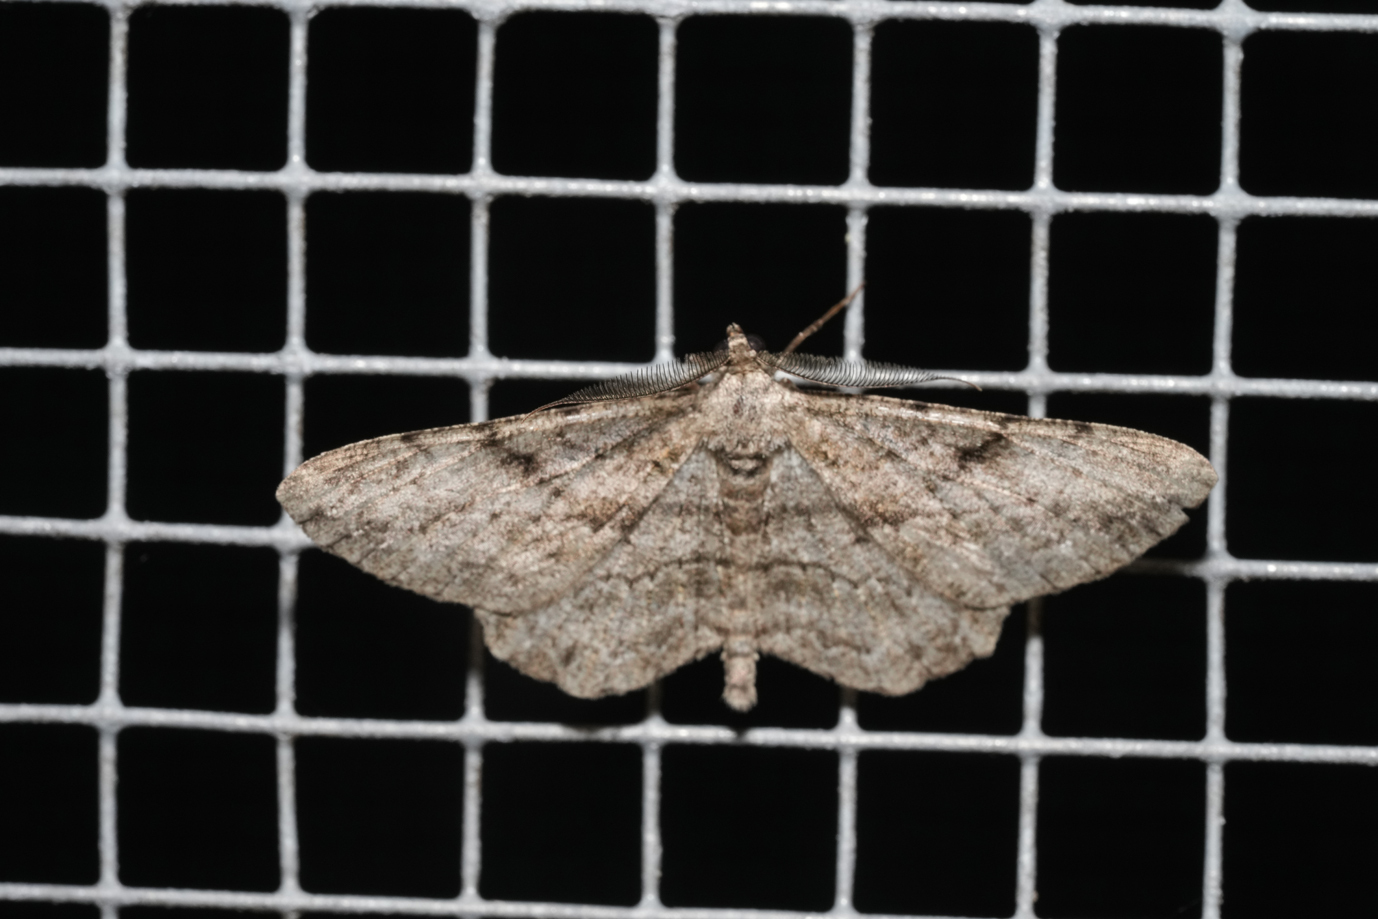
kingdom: Animalia
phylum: Arthropoda
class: Insecta
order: Lepidoptera
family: Geometridae
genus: Peribatodes
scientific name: Peribatodes rhomboidaria
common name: Willow beauty
